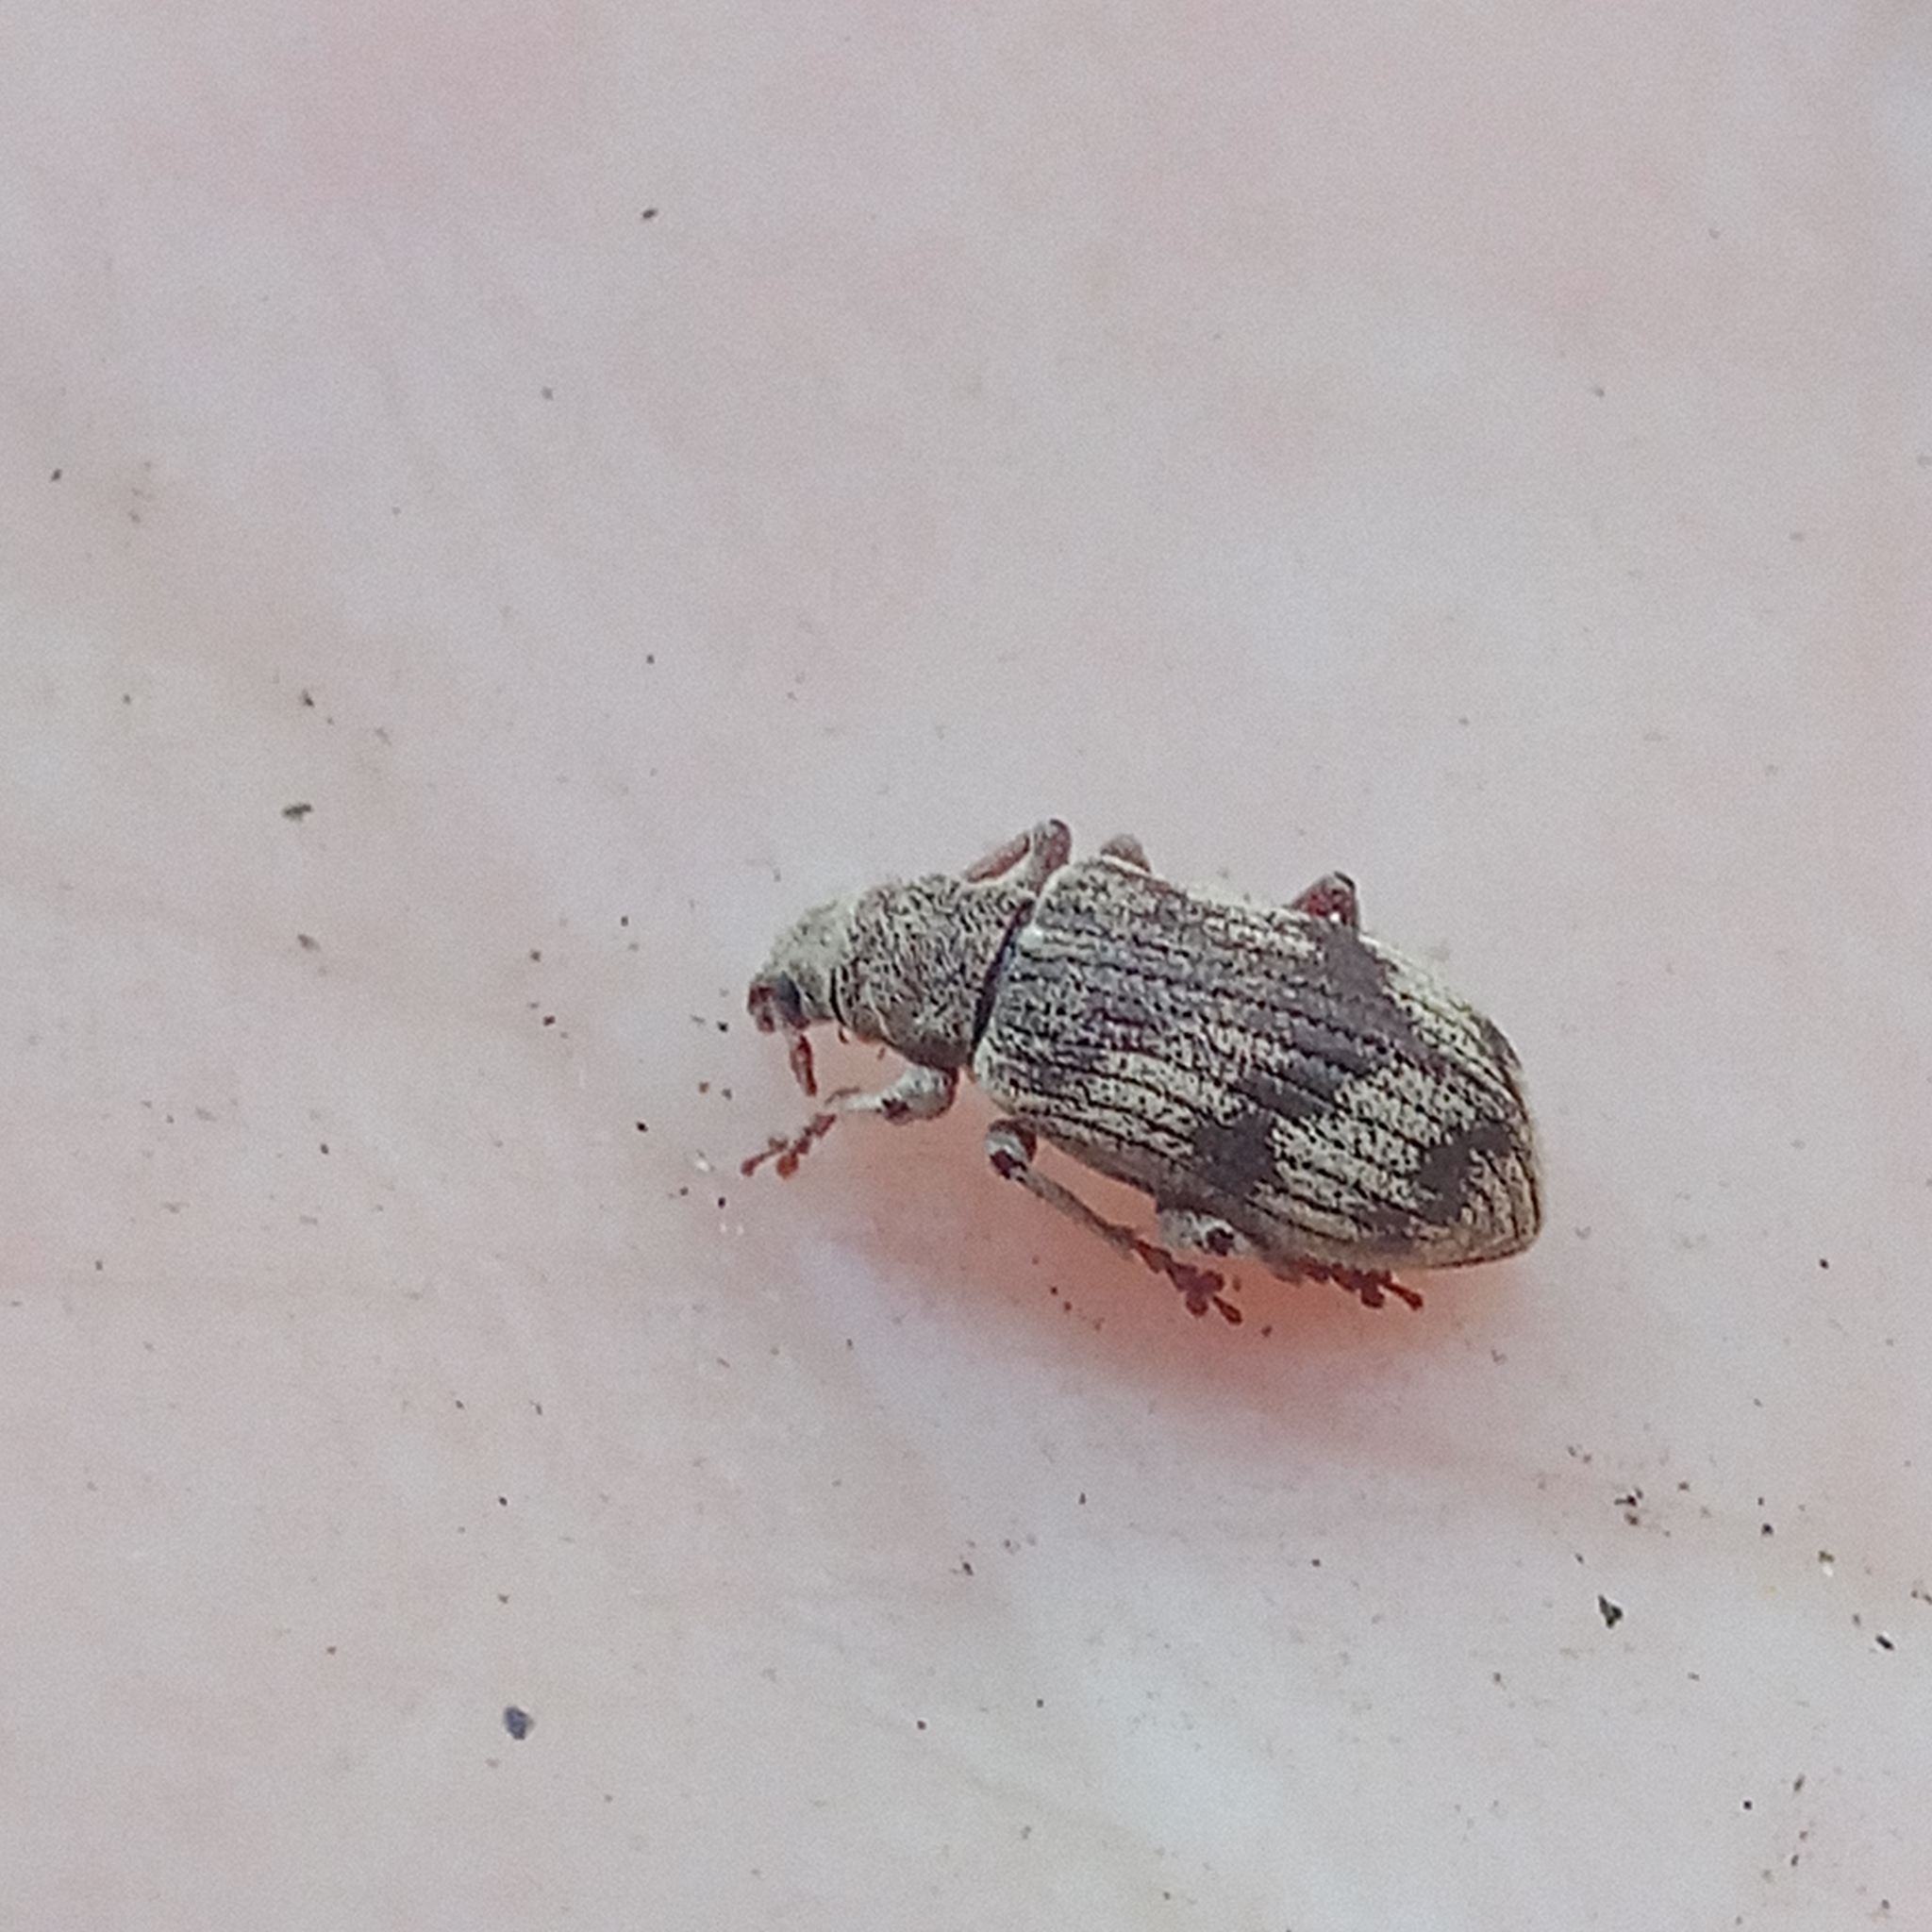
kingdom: Animalia
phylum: Arthropoda
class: Insecta
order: Coleoptera
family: Curculionidae
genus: Polydrusus
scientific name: Polydrusus tereticollis
